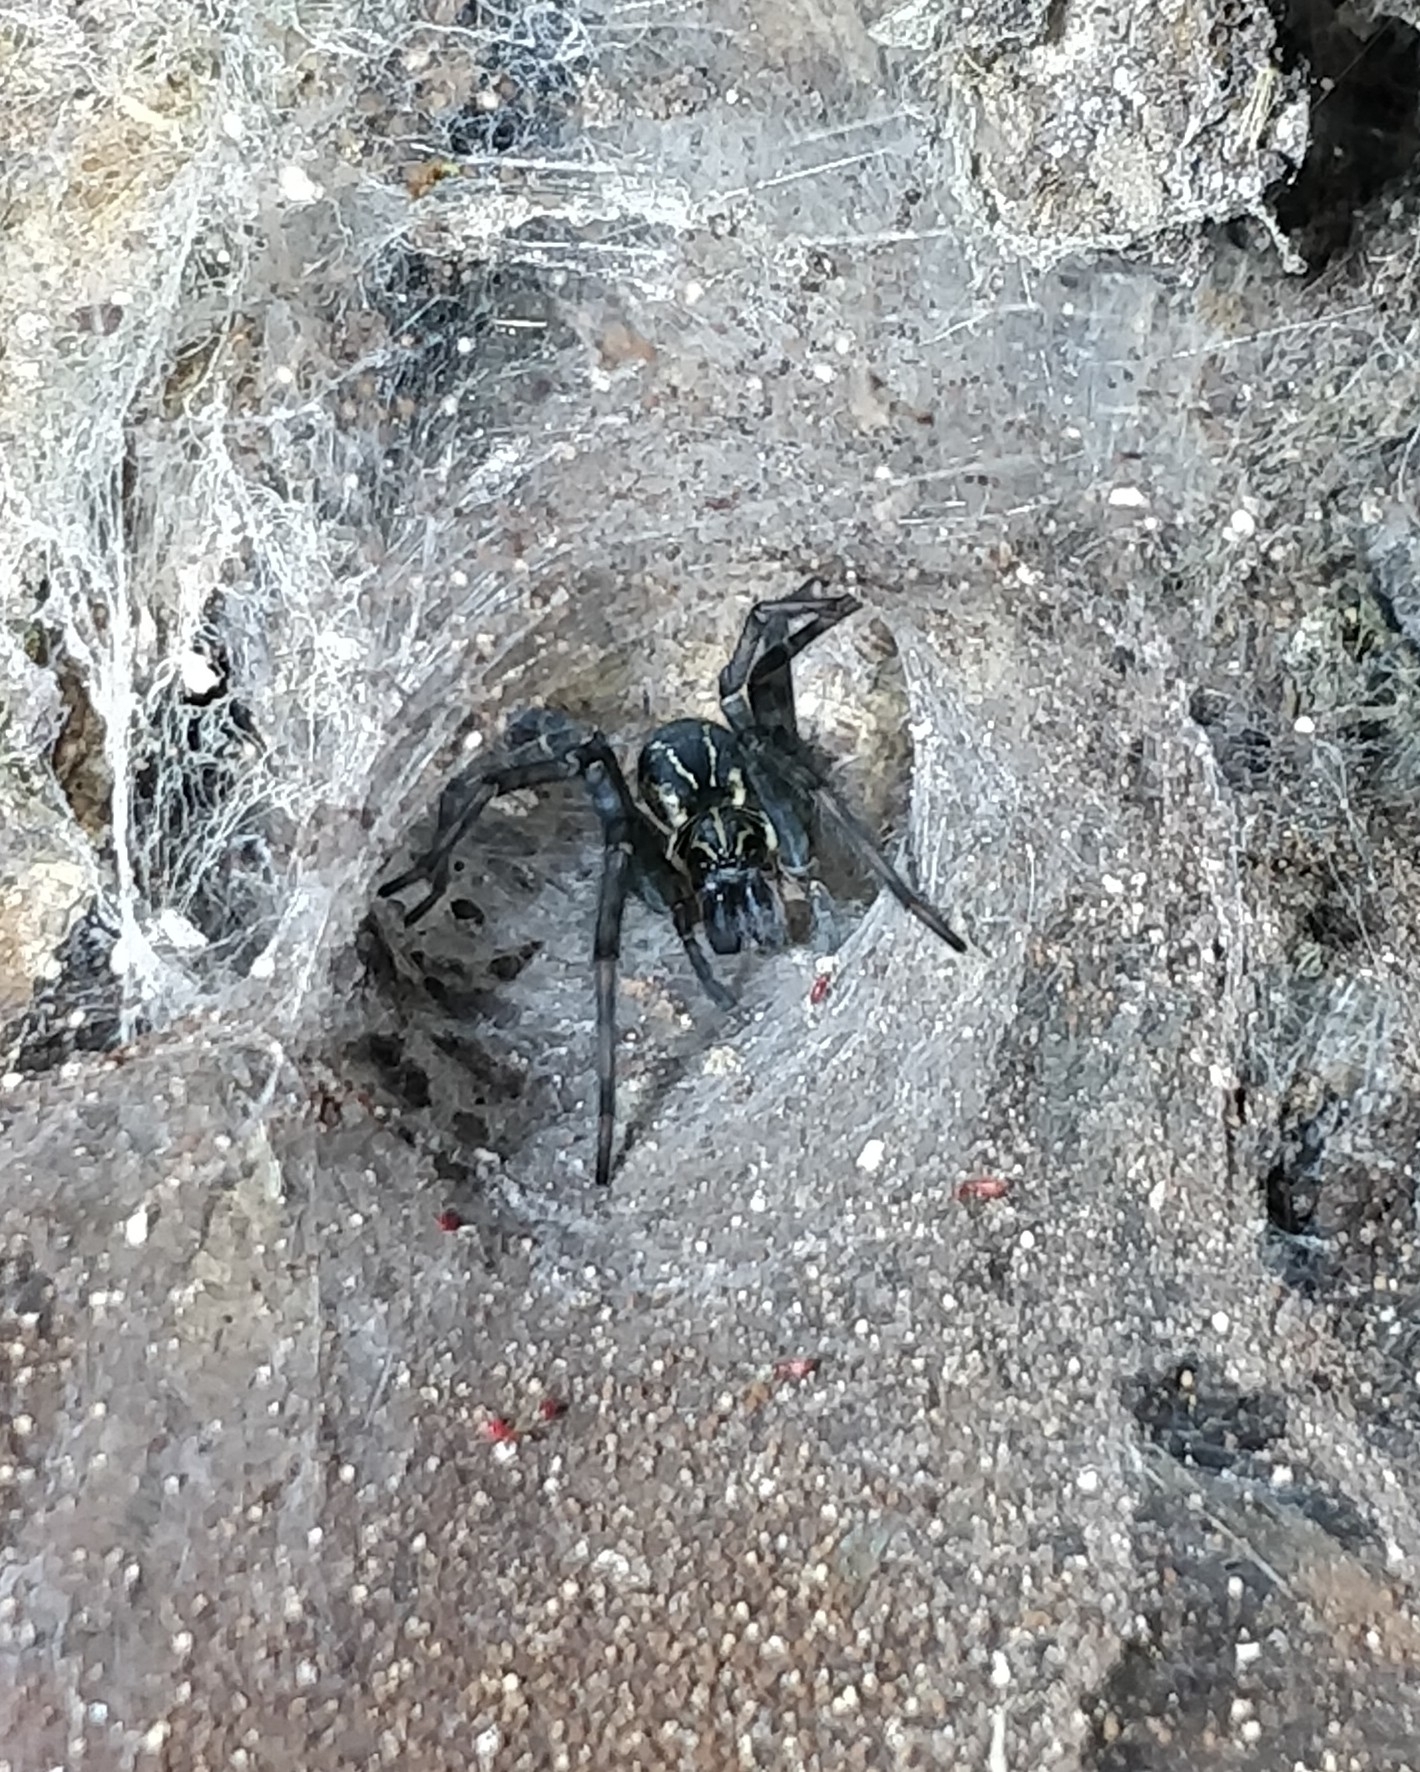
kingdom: Animalia
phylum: Arthropoda
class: Arachnida
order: Araneae
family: Zoropsidae
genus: Tengella
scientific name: Tengella radiata
